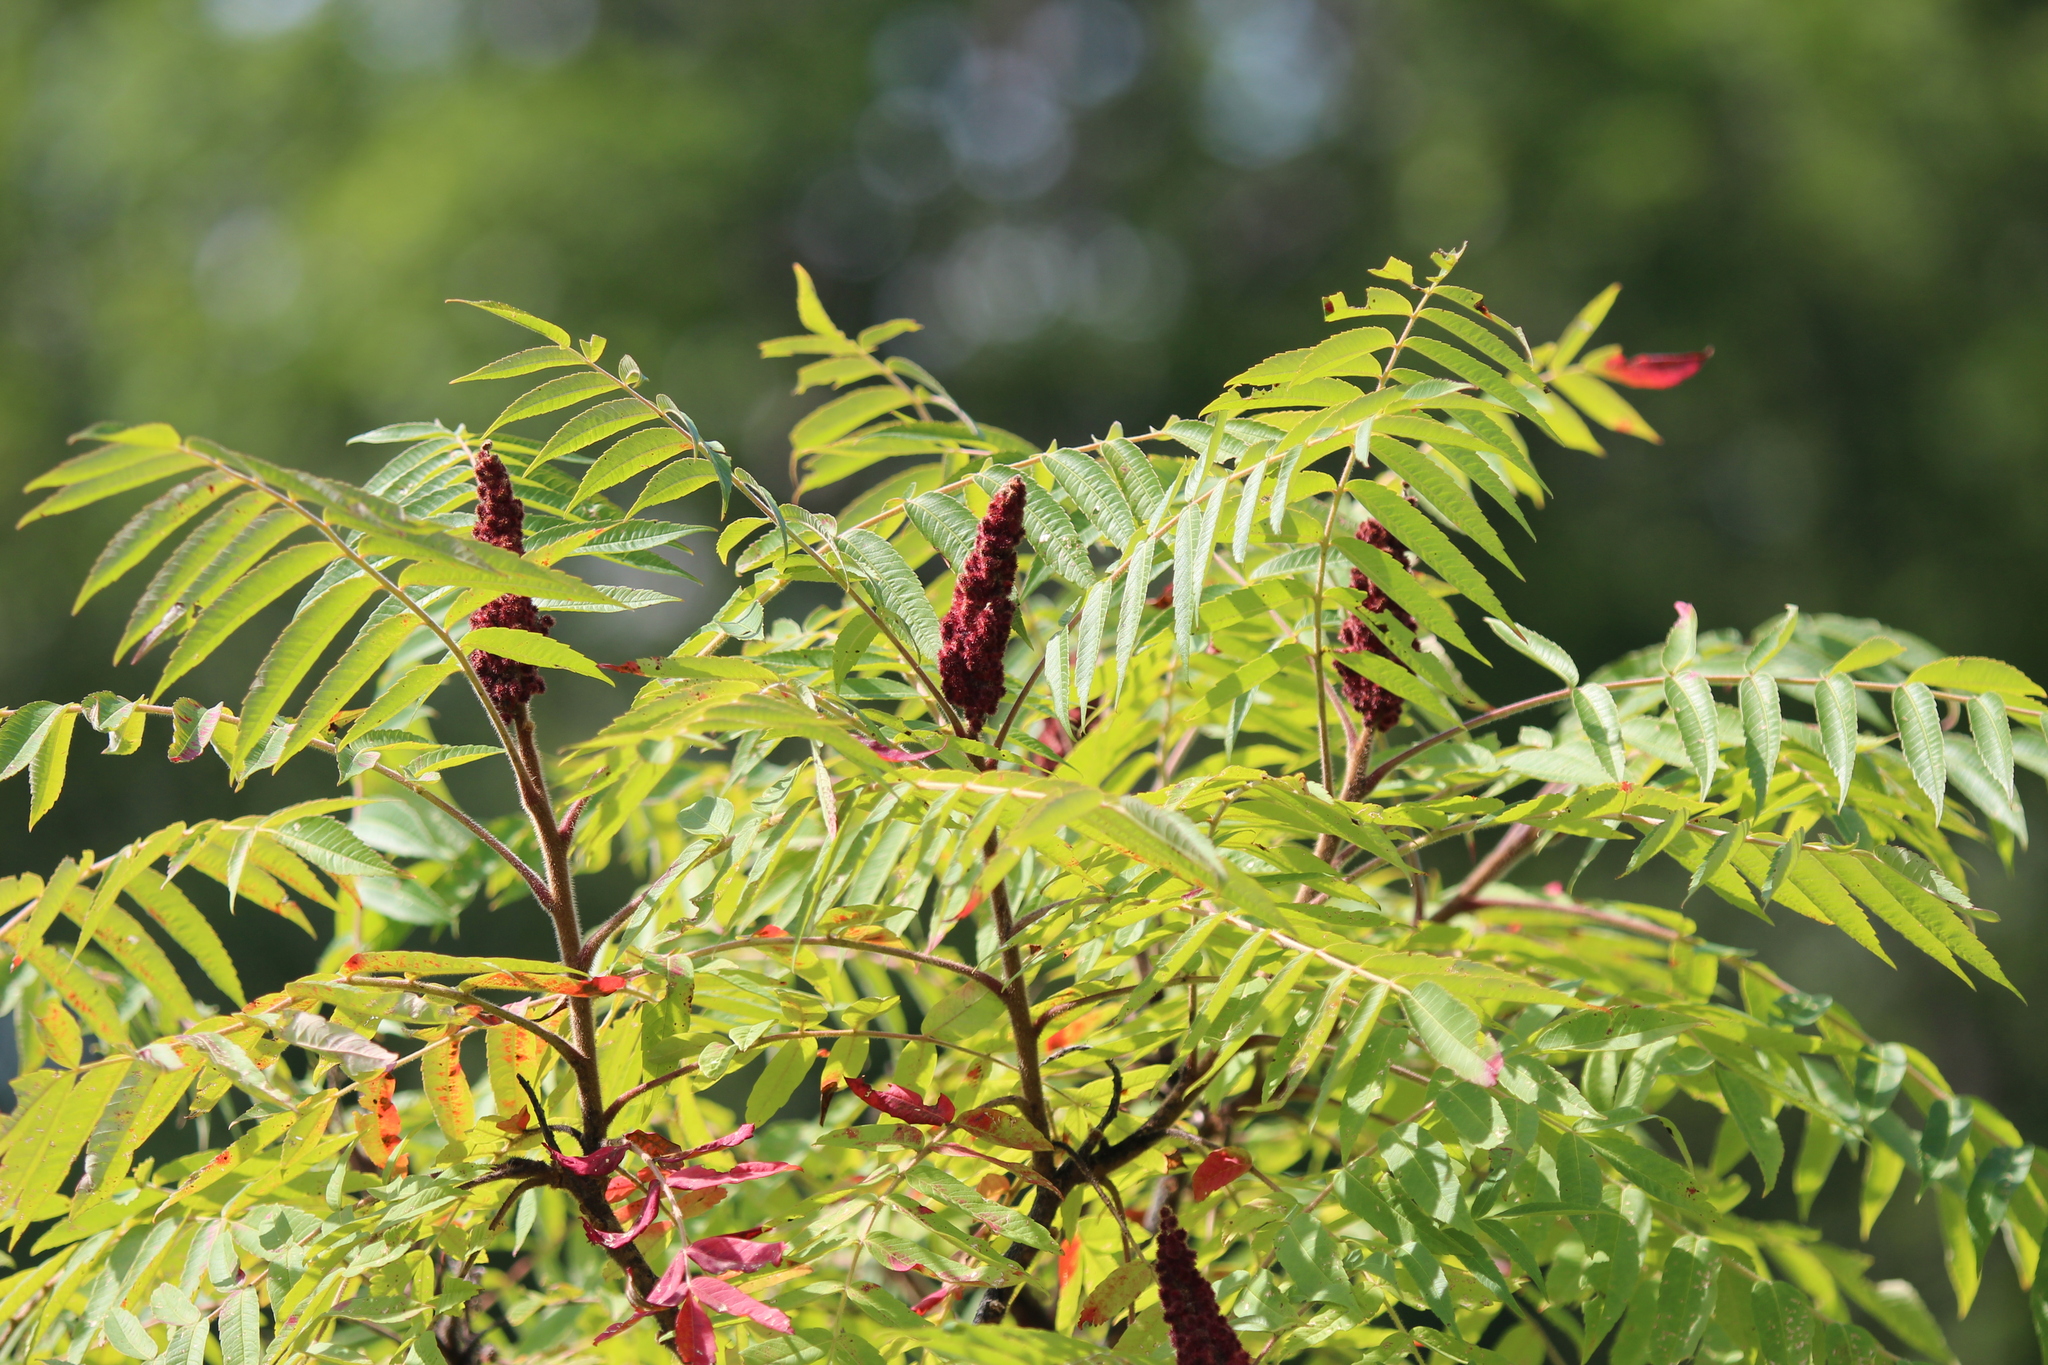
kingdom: Plantae
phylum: Tracheophyta
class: Magnoliopsida
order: Sapindales
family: Anacardiaceae
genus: Rhus
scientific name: Rhus typhina
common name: Staghorn sumac
